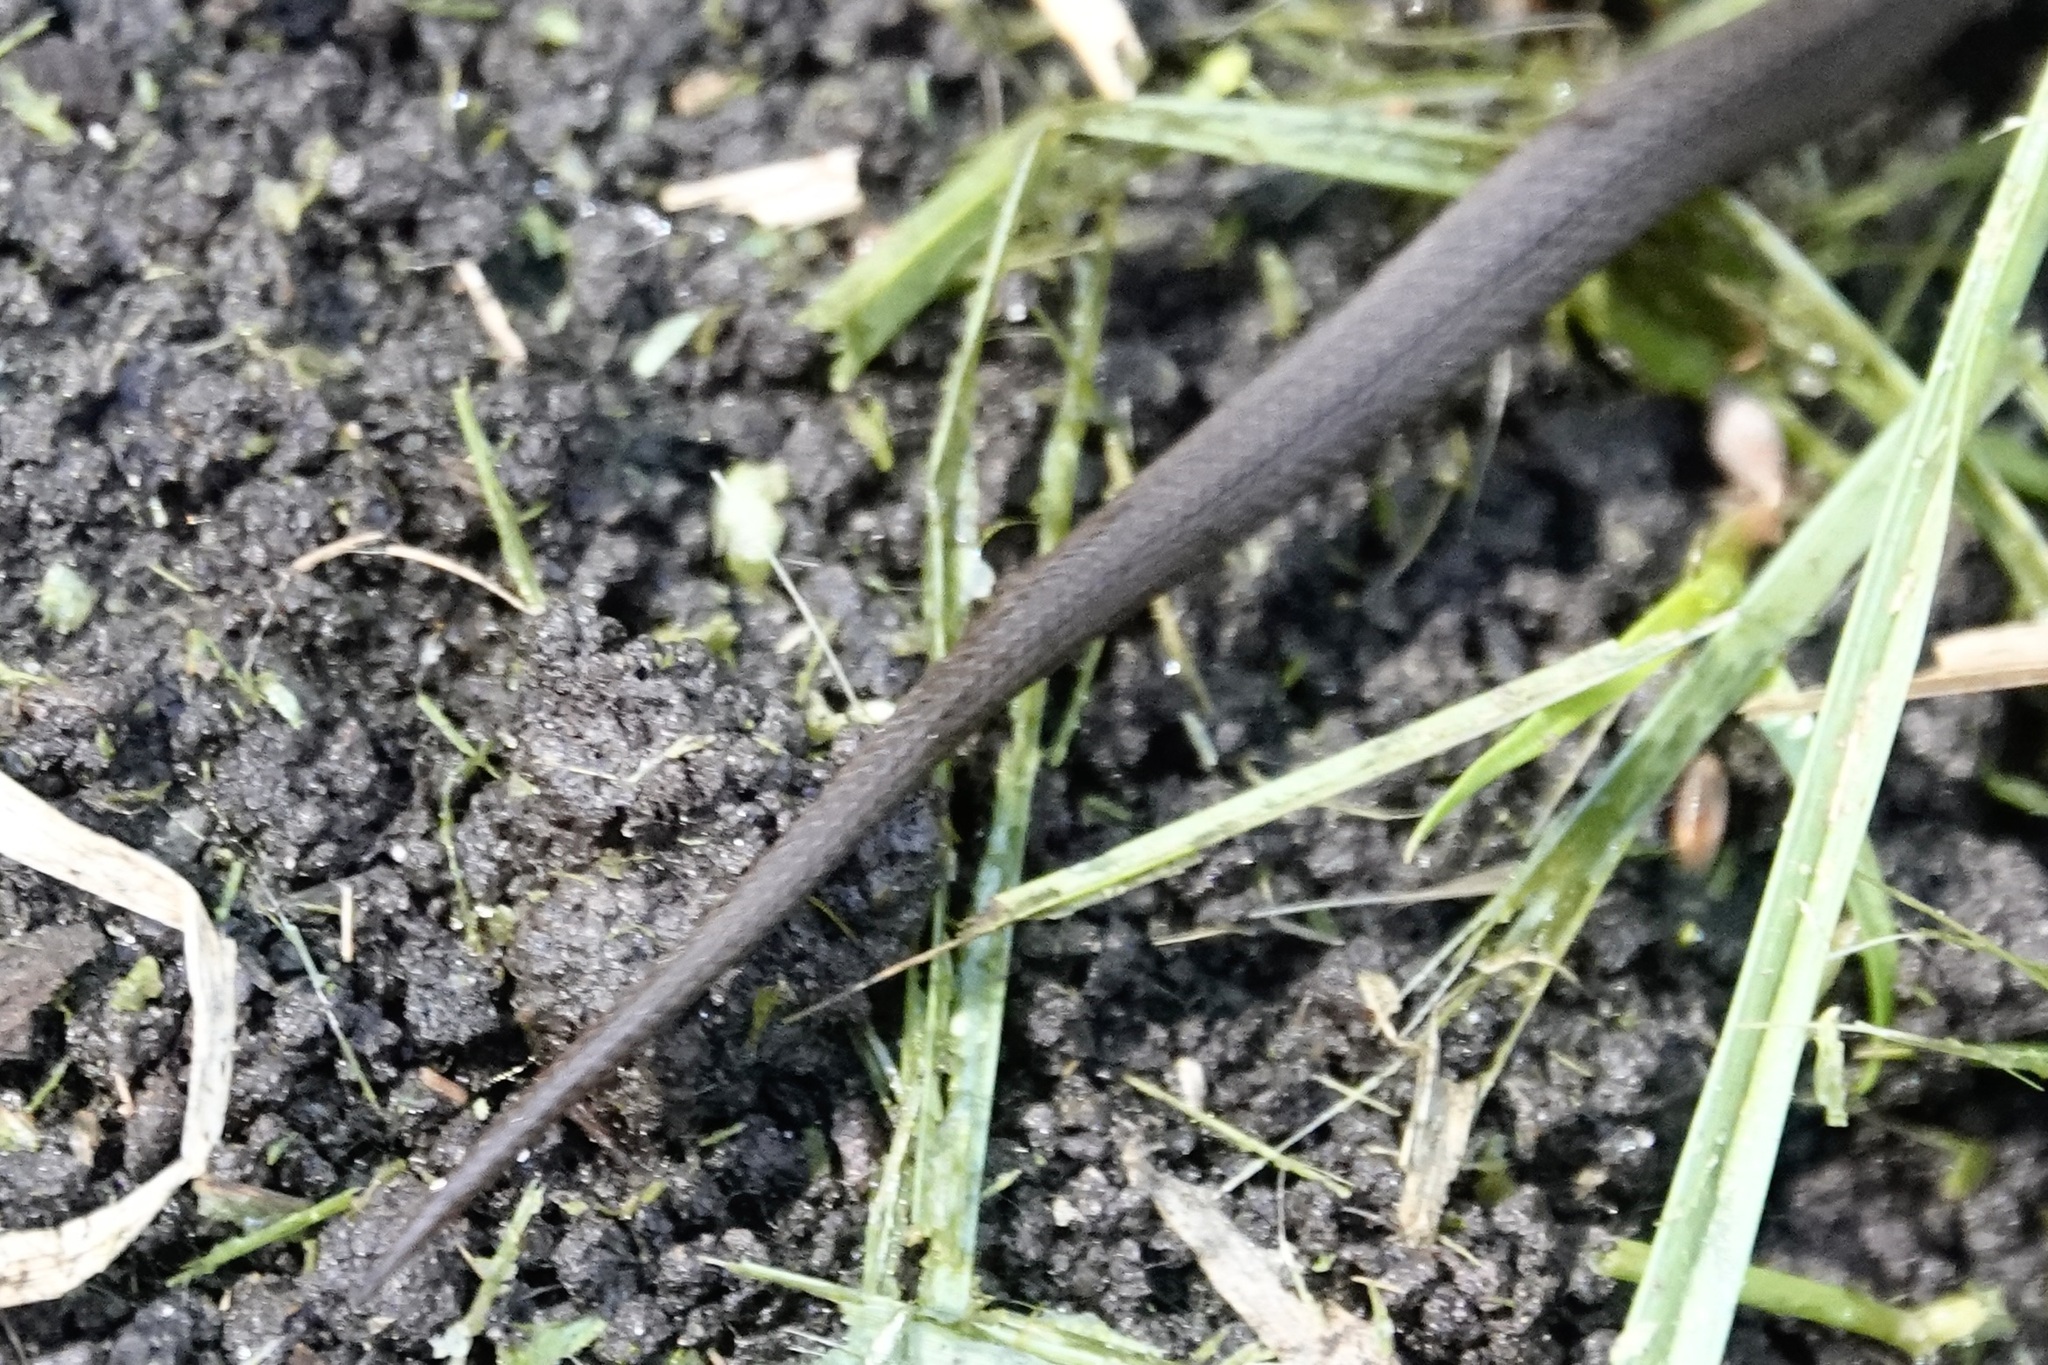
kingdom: Animalia
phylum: Chordata
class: Squamata
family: Colubridae
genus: Storeria
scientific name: Storeria dekayi
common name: (dekay’s) brown snake
